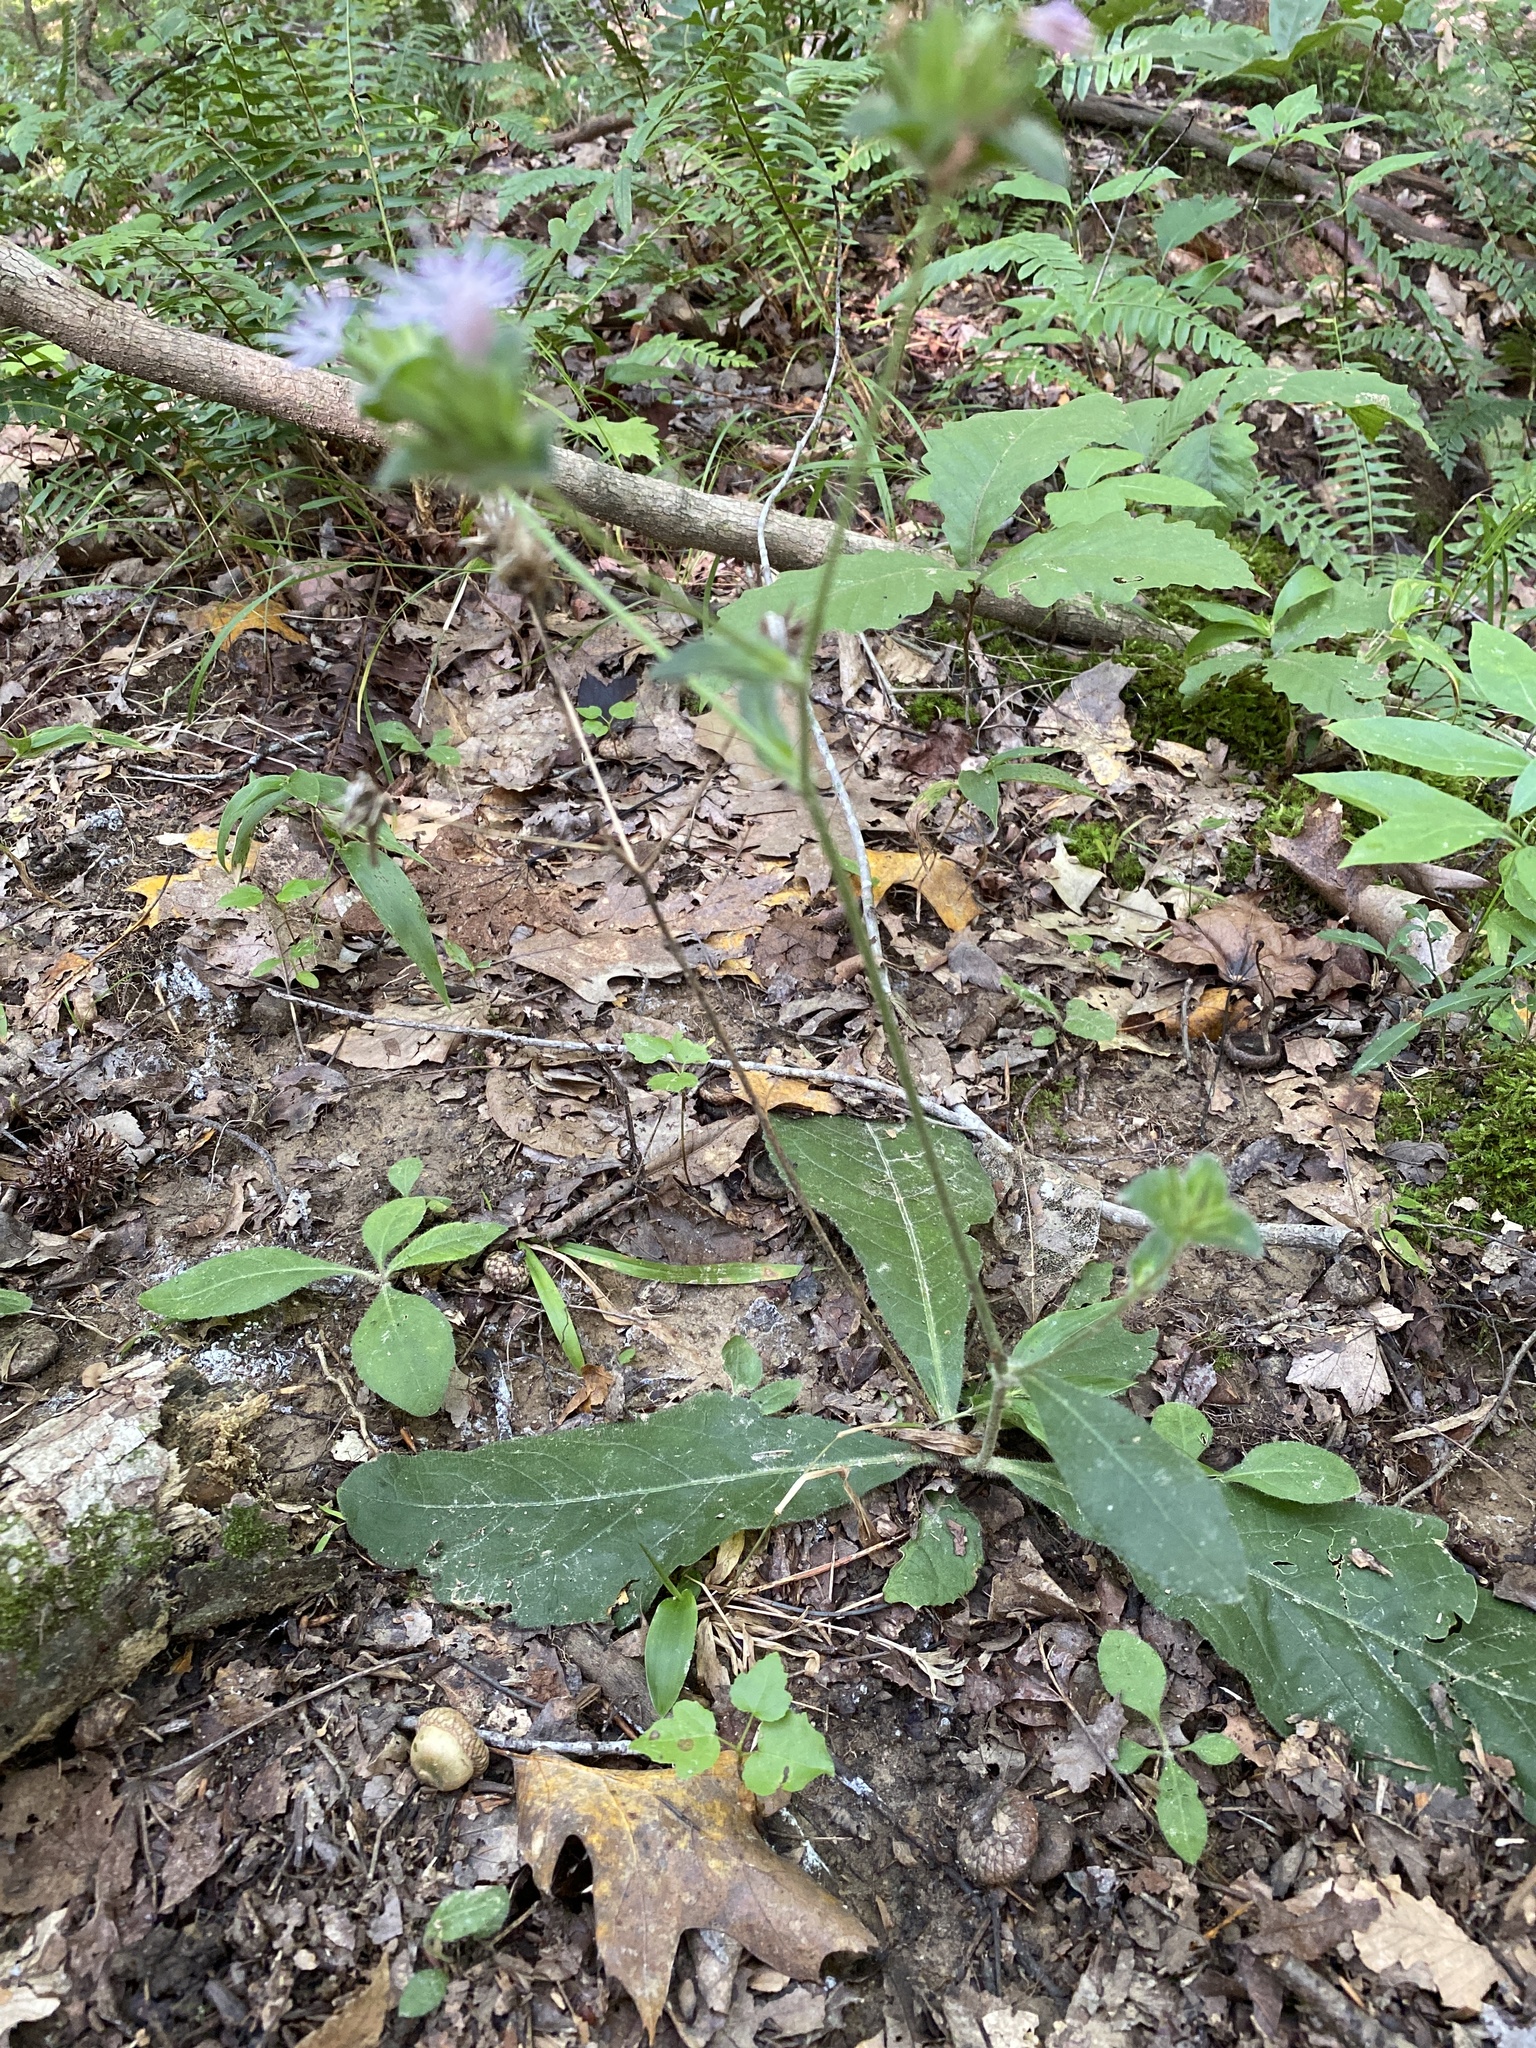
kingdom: Plantae
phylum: Tracheophyta
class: Magnoliopsida
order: Asterales
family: Asteraceae
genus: Elephantopus
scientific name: Elephantopus tomentosus
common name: Tobacco-weed
